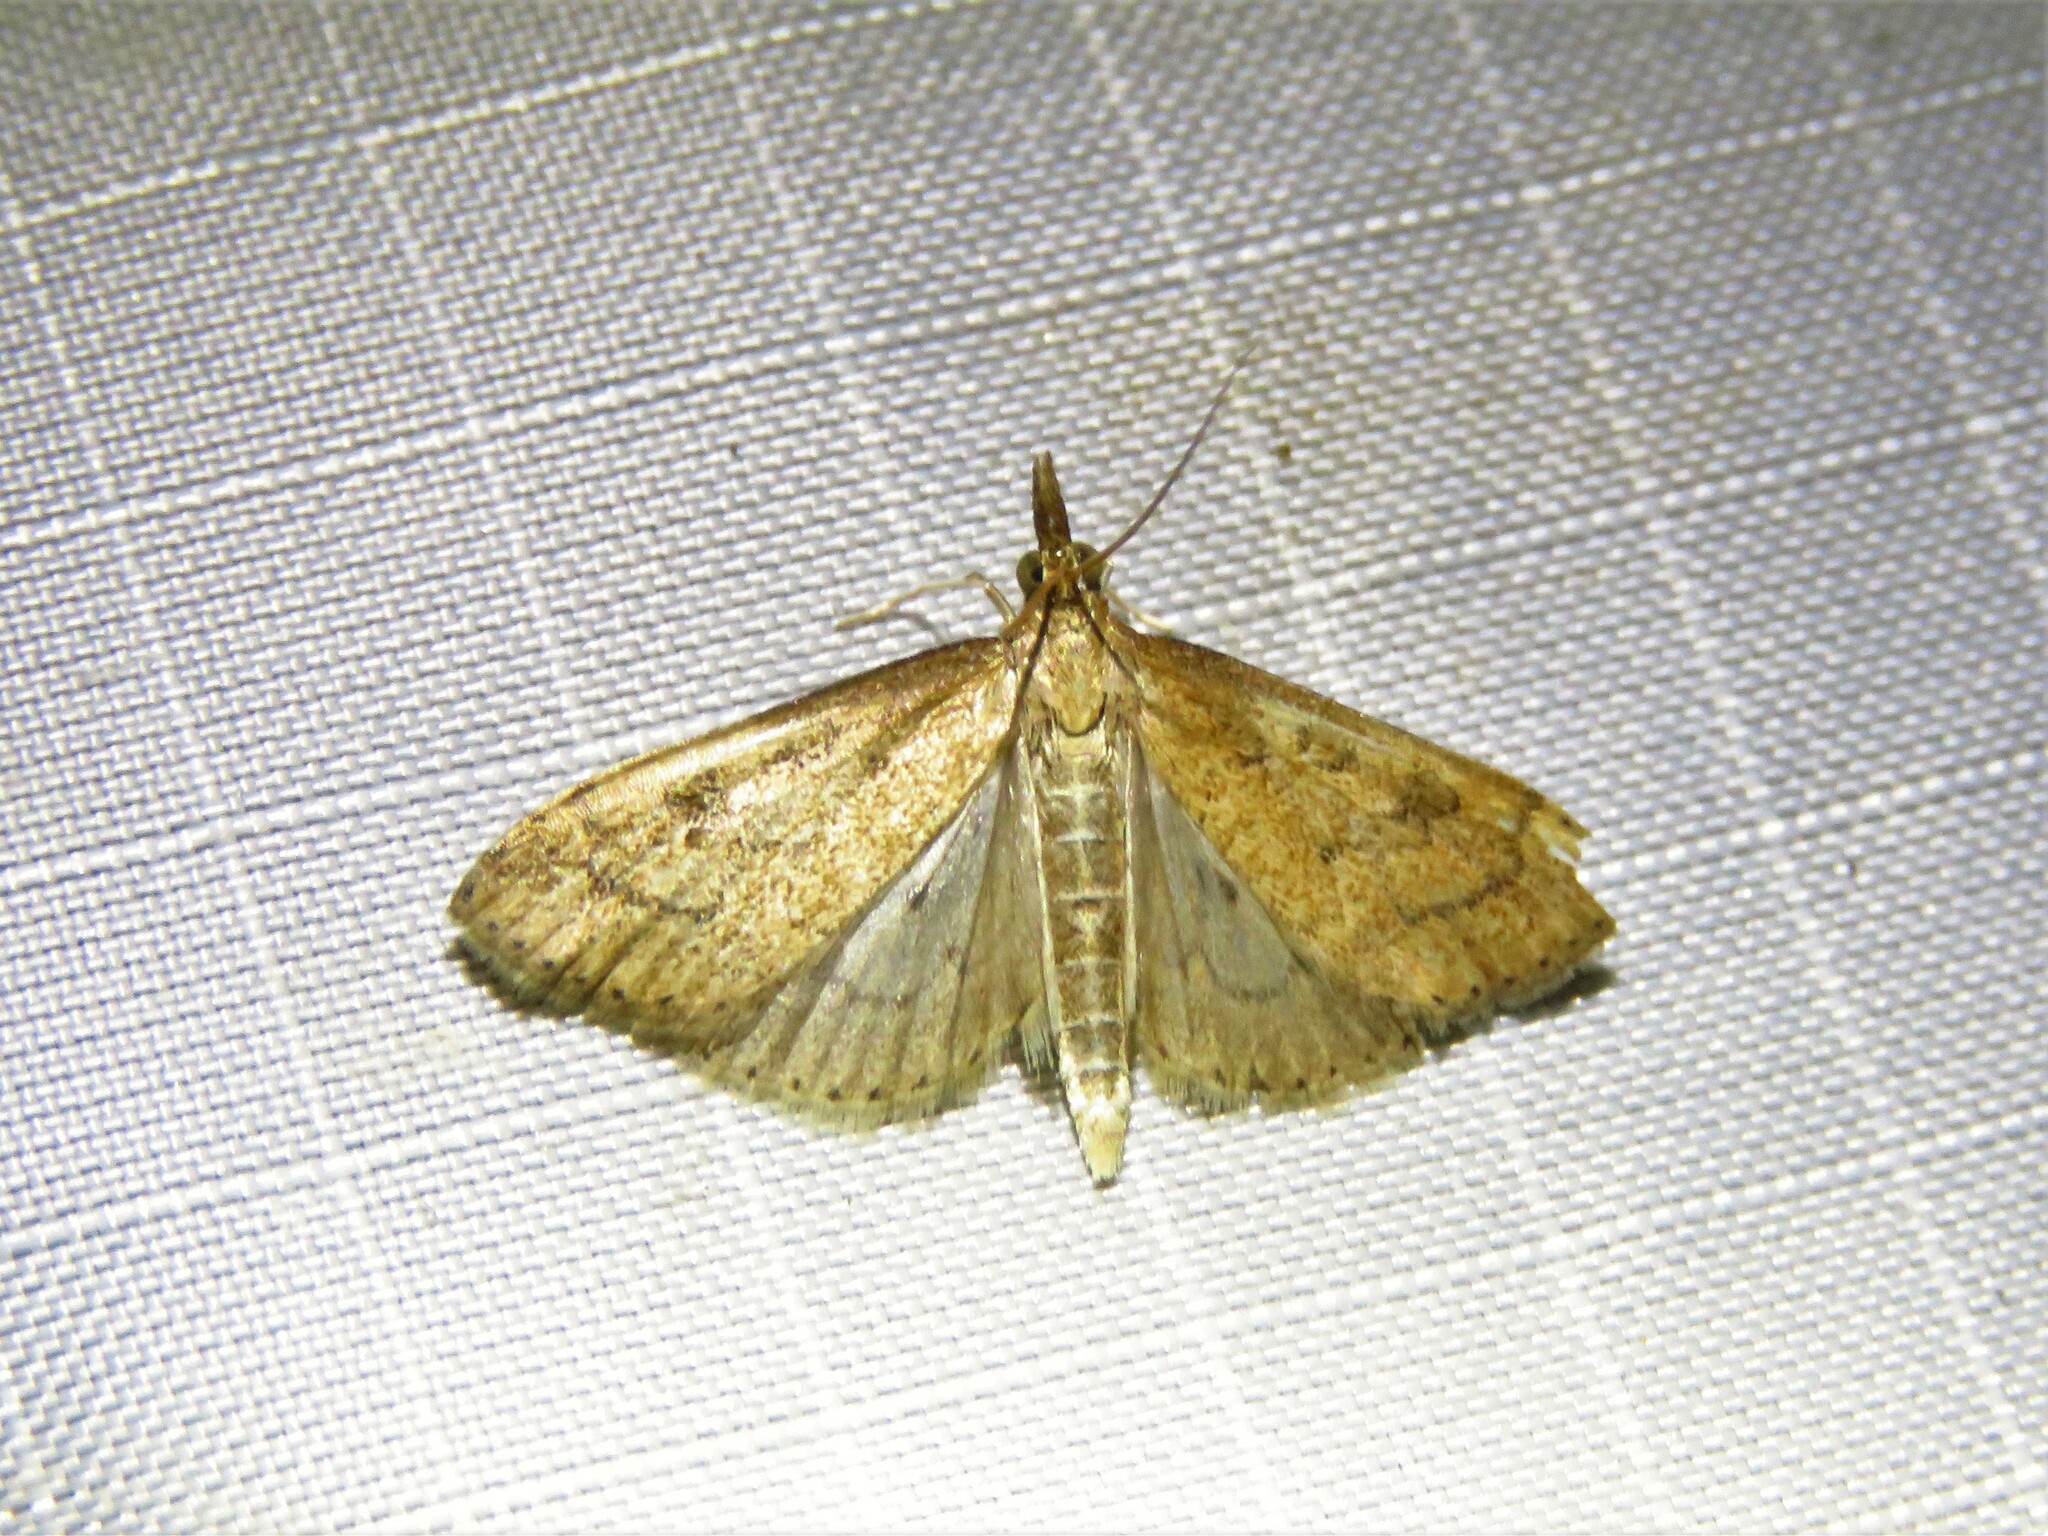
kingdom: Animalia
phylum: Arthropoda
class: Insecta
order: Lepidoptera
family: Crambidae
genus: Udea
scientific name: Udea rubigalis
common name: Celery leaftier moth
